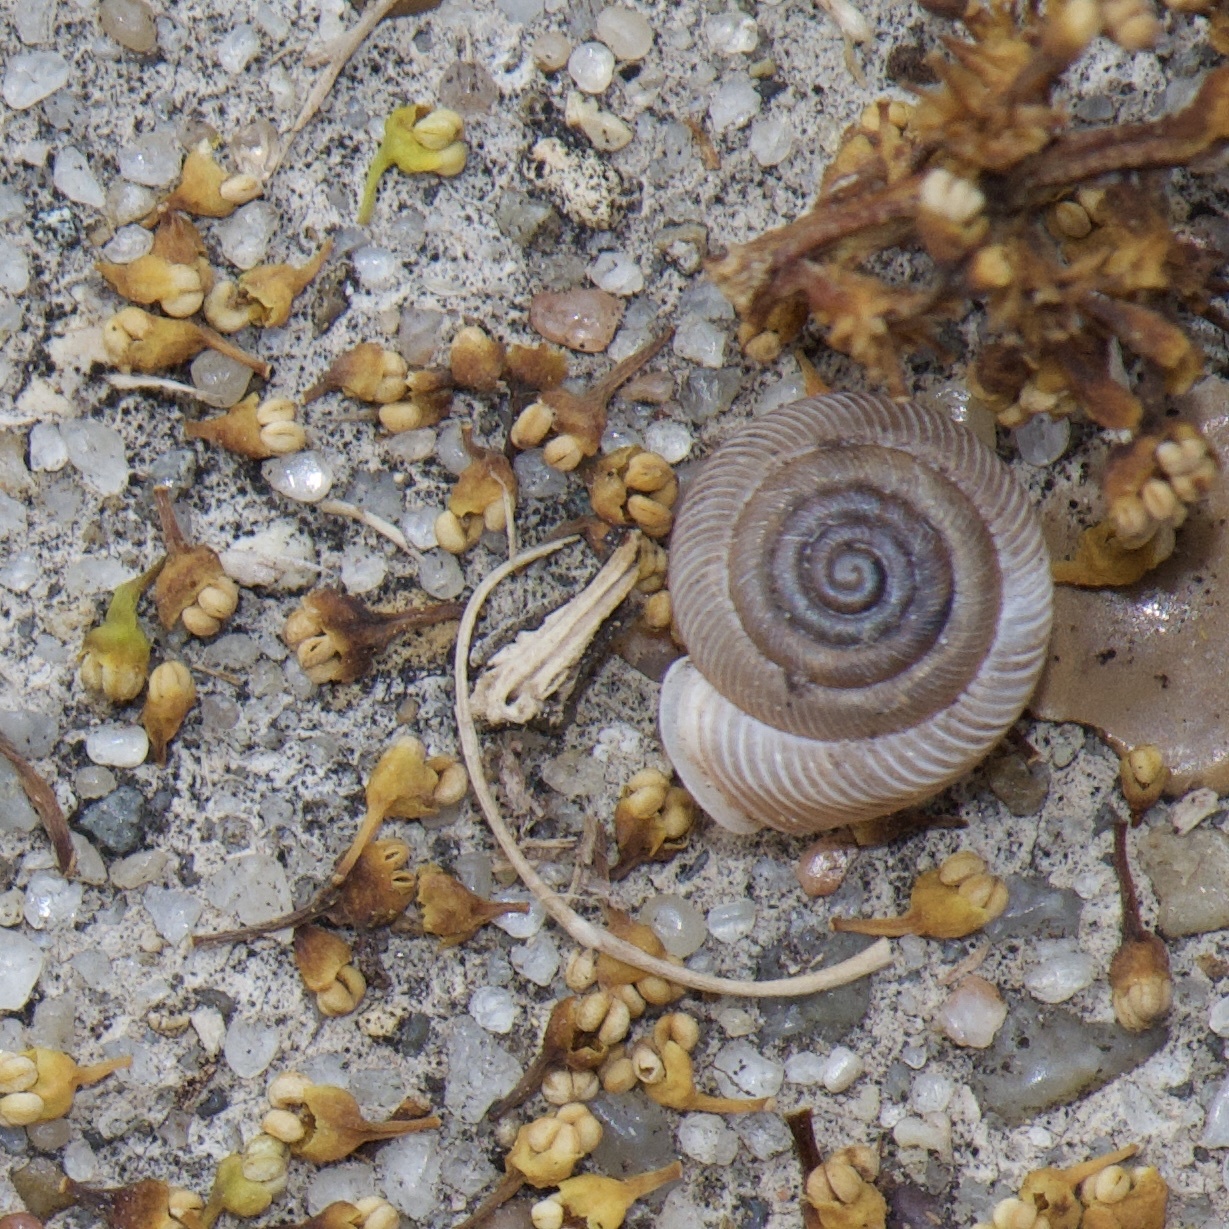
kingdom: Animalia
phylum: Mollusca
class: Gastropoda
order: Stylommatophora
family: Polygyridae
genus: Polygyra
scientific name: Polygyra cereolus
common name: Southern flatcone snail
